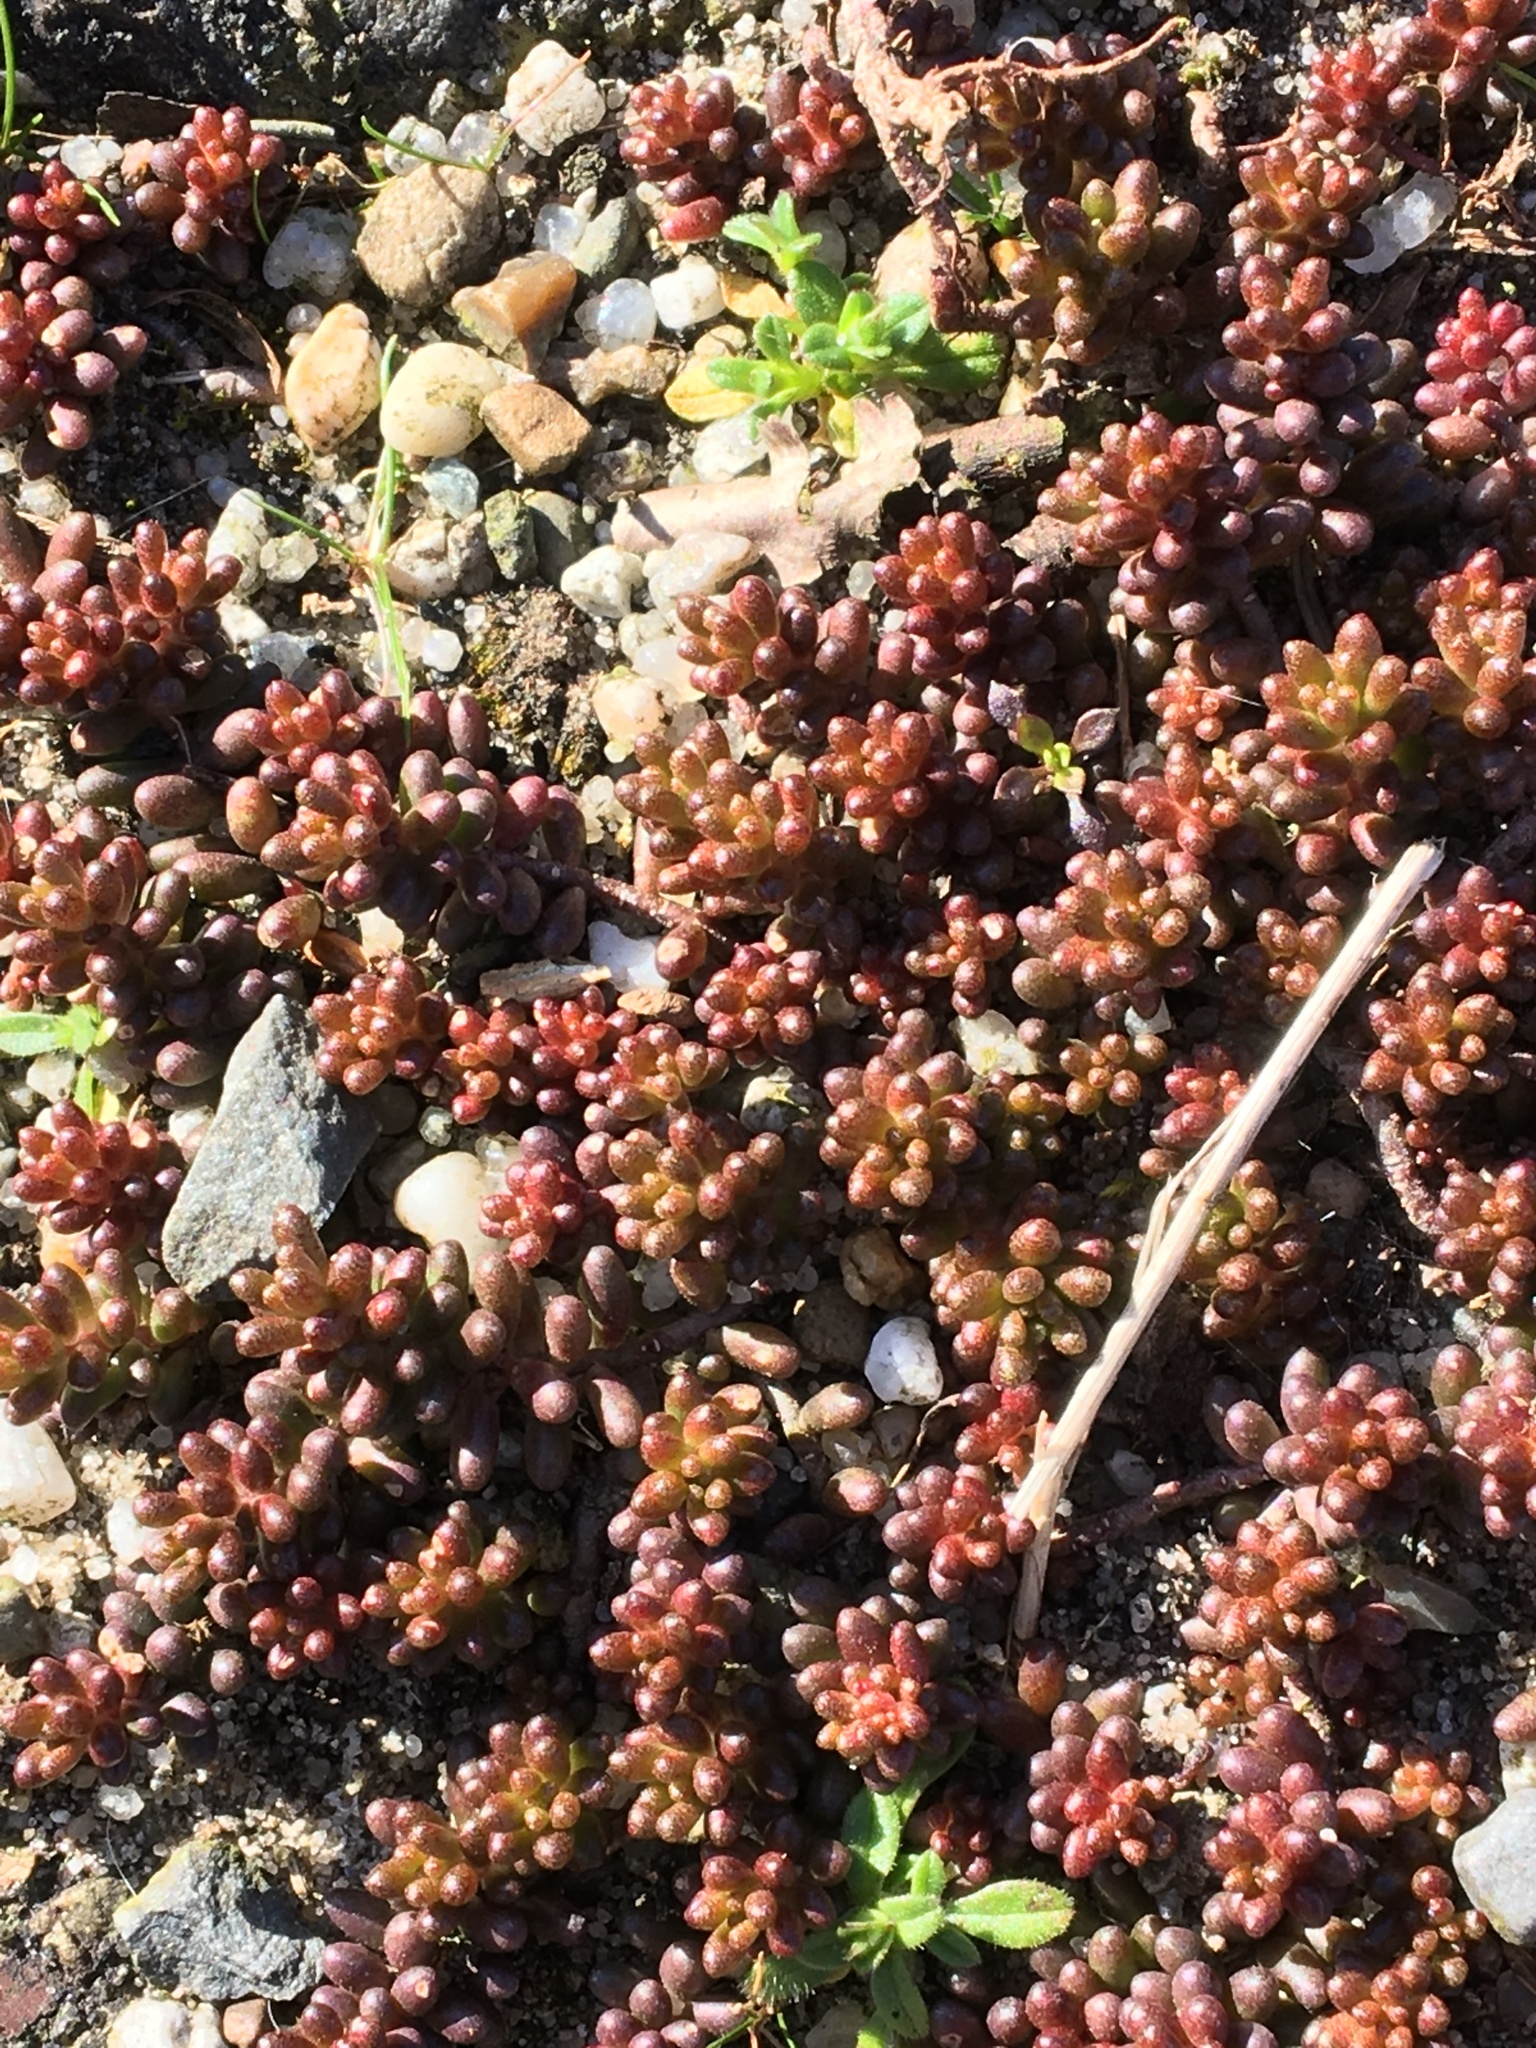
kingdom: Plantae
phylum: Tracheophyta
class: Magnoliopsida
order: Saxifragales
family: Crassulaceae
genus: Sedum
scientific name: Sedum album
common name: White stonecrop
